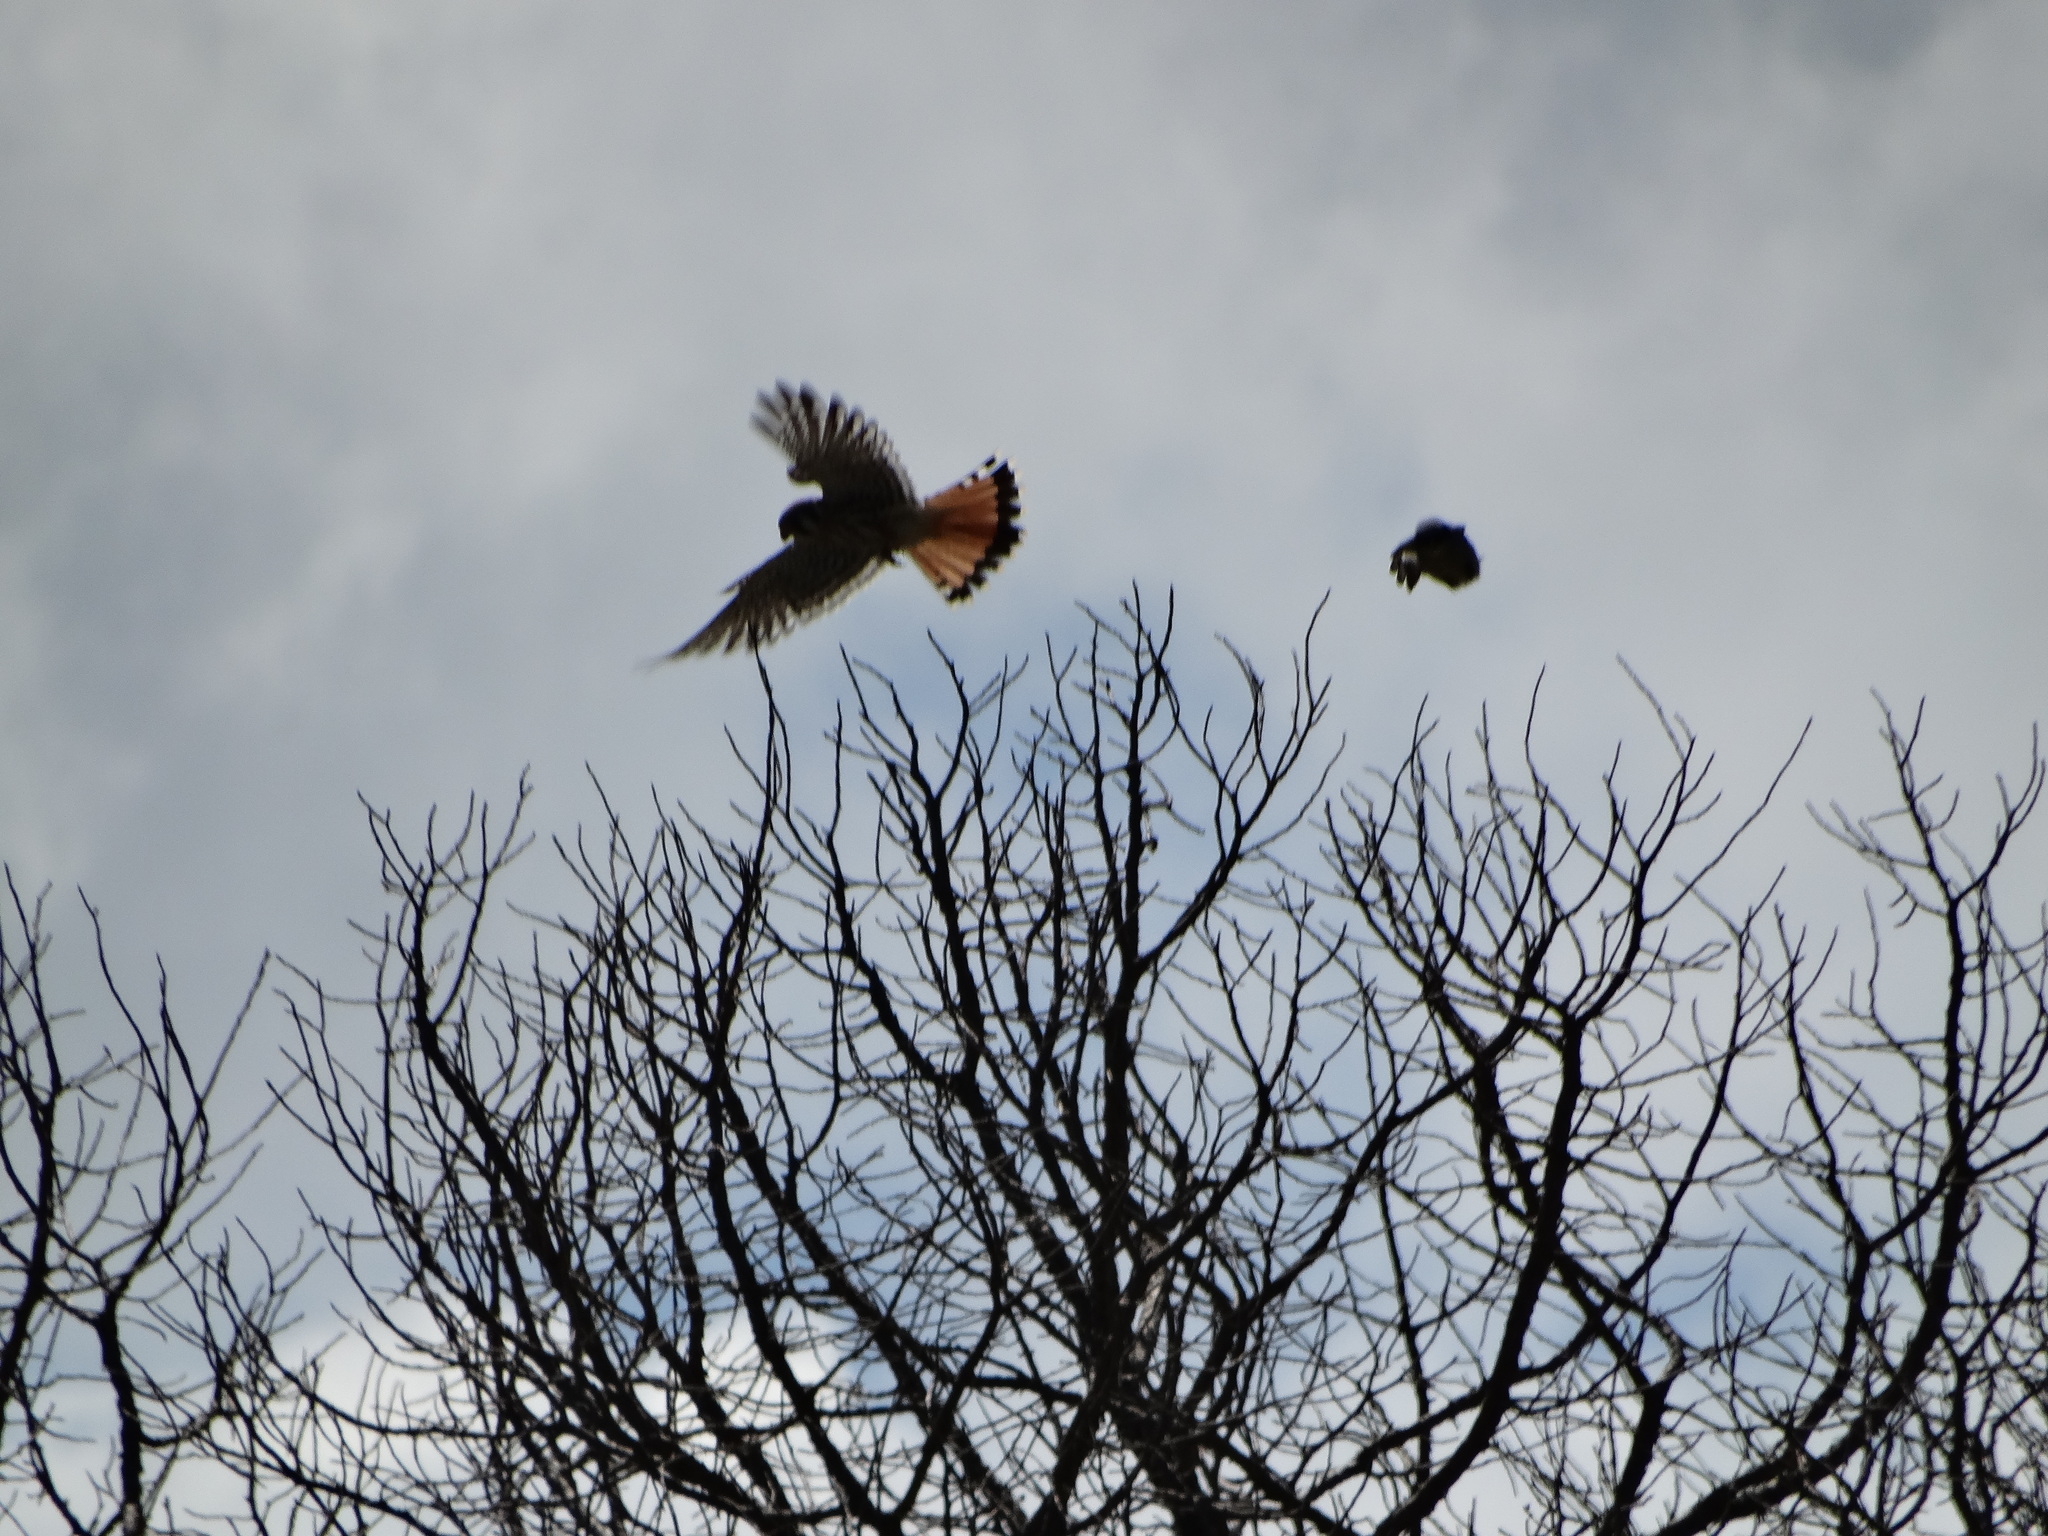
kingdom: Animalia
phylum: Chordata
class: Aves
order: Falconiformes
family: Falconidae
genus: Falco
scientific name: Falco sparverius
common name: American kestrel
